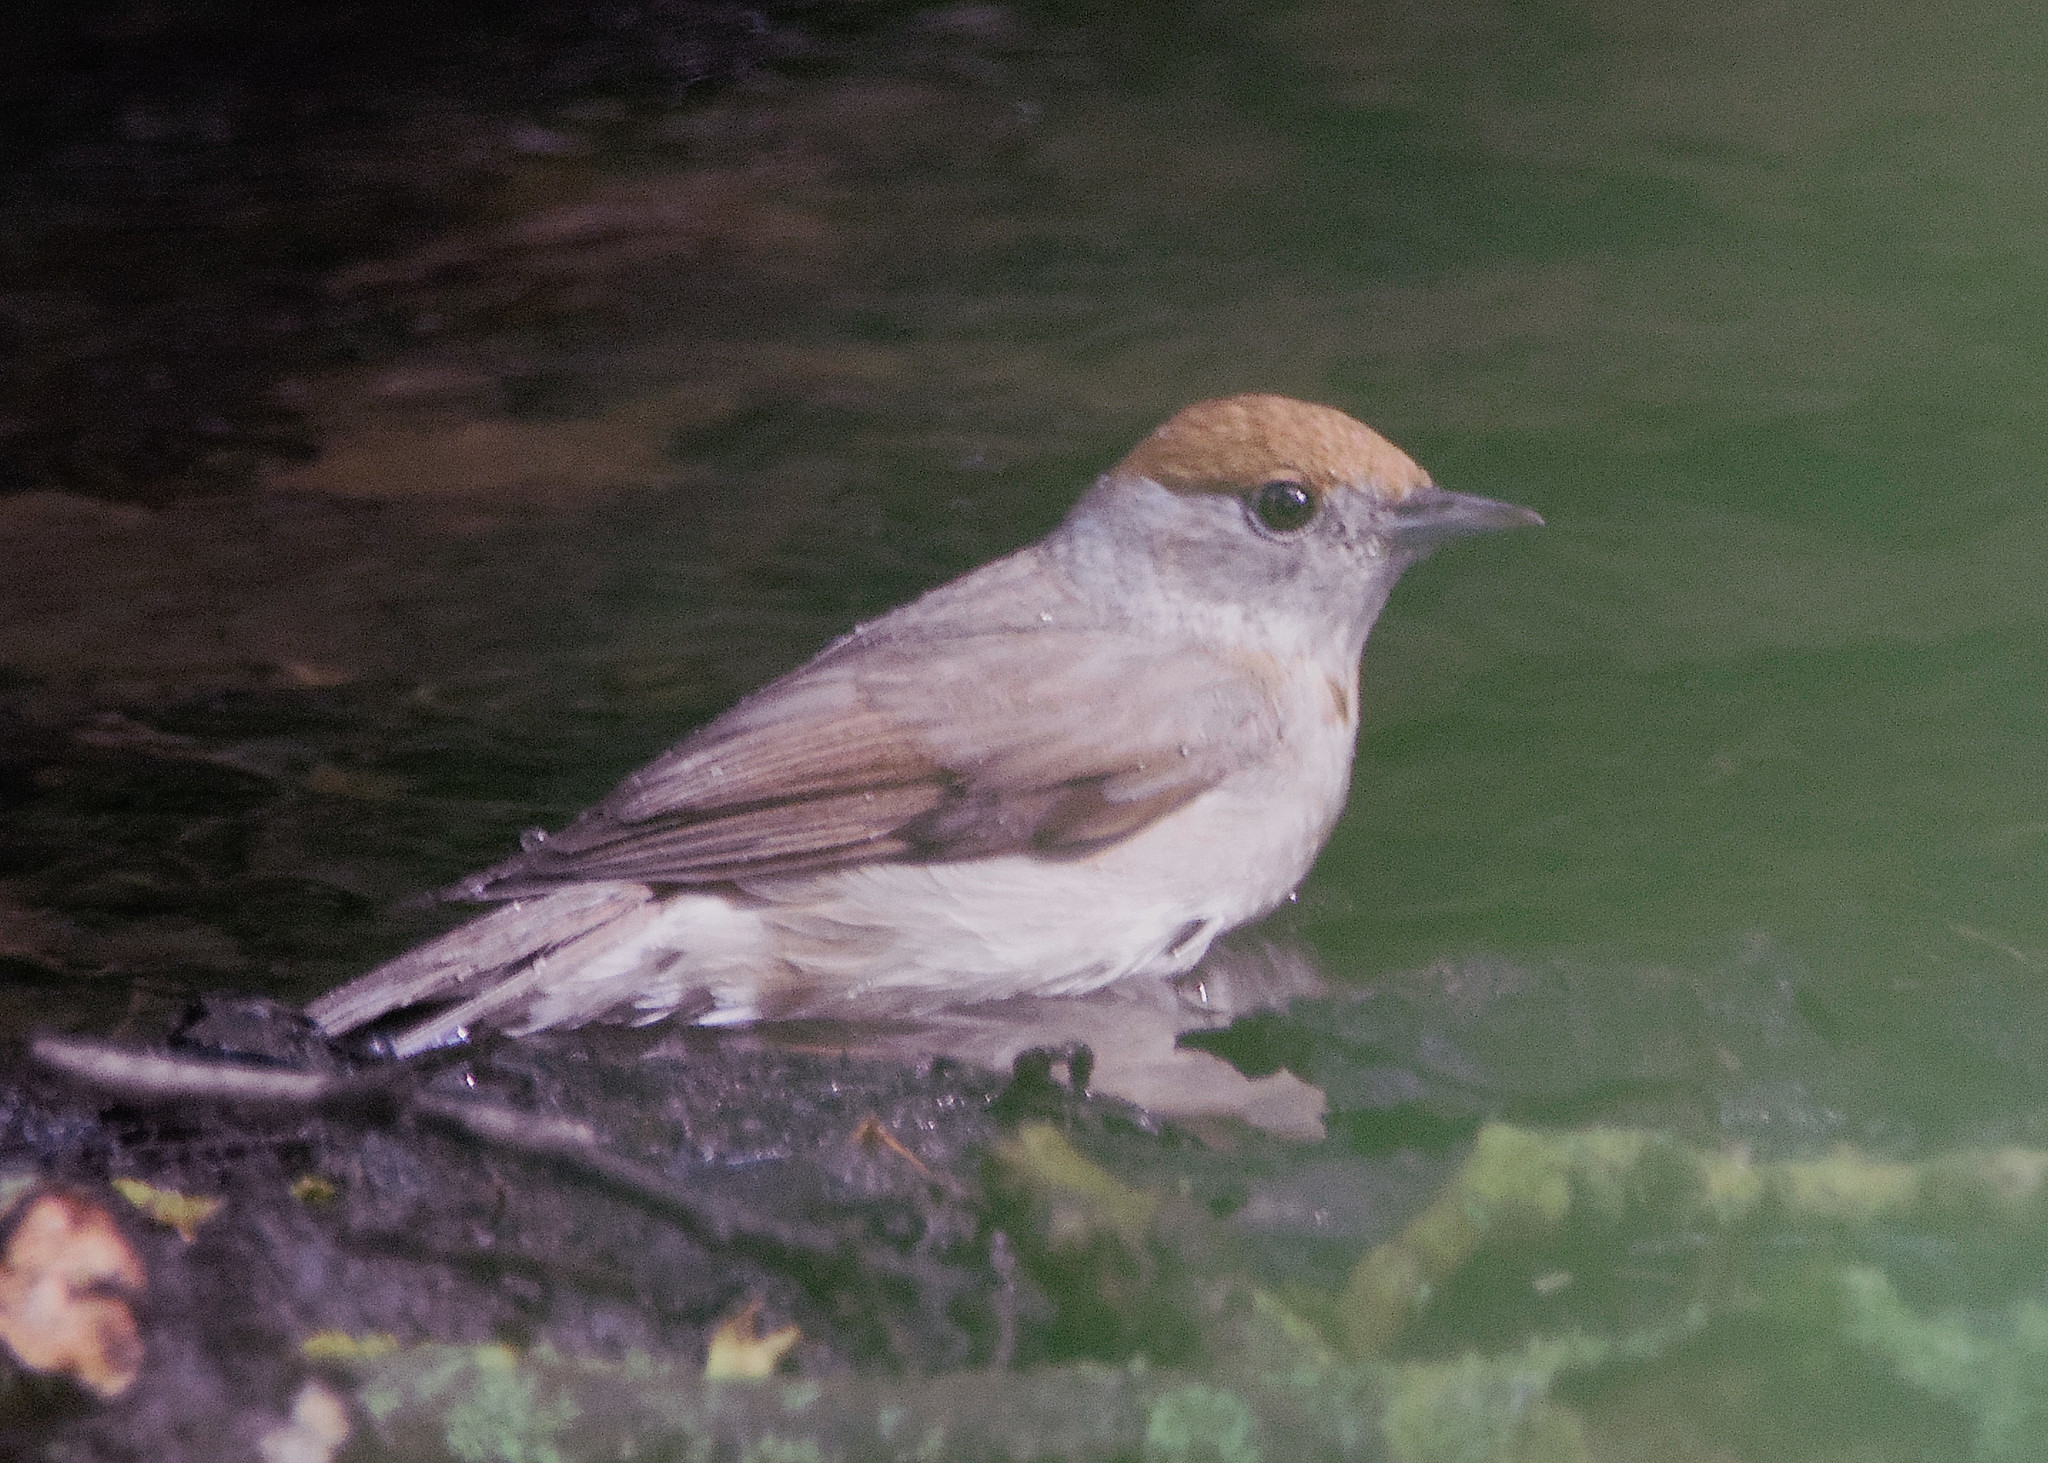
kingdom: Animalia
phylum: Chordata
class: Aves
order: Passeriformes
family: Sylviidae
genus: Sylvia
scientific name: Sylvia atricapilla
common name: Eurasian blackcap
